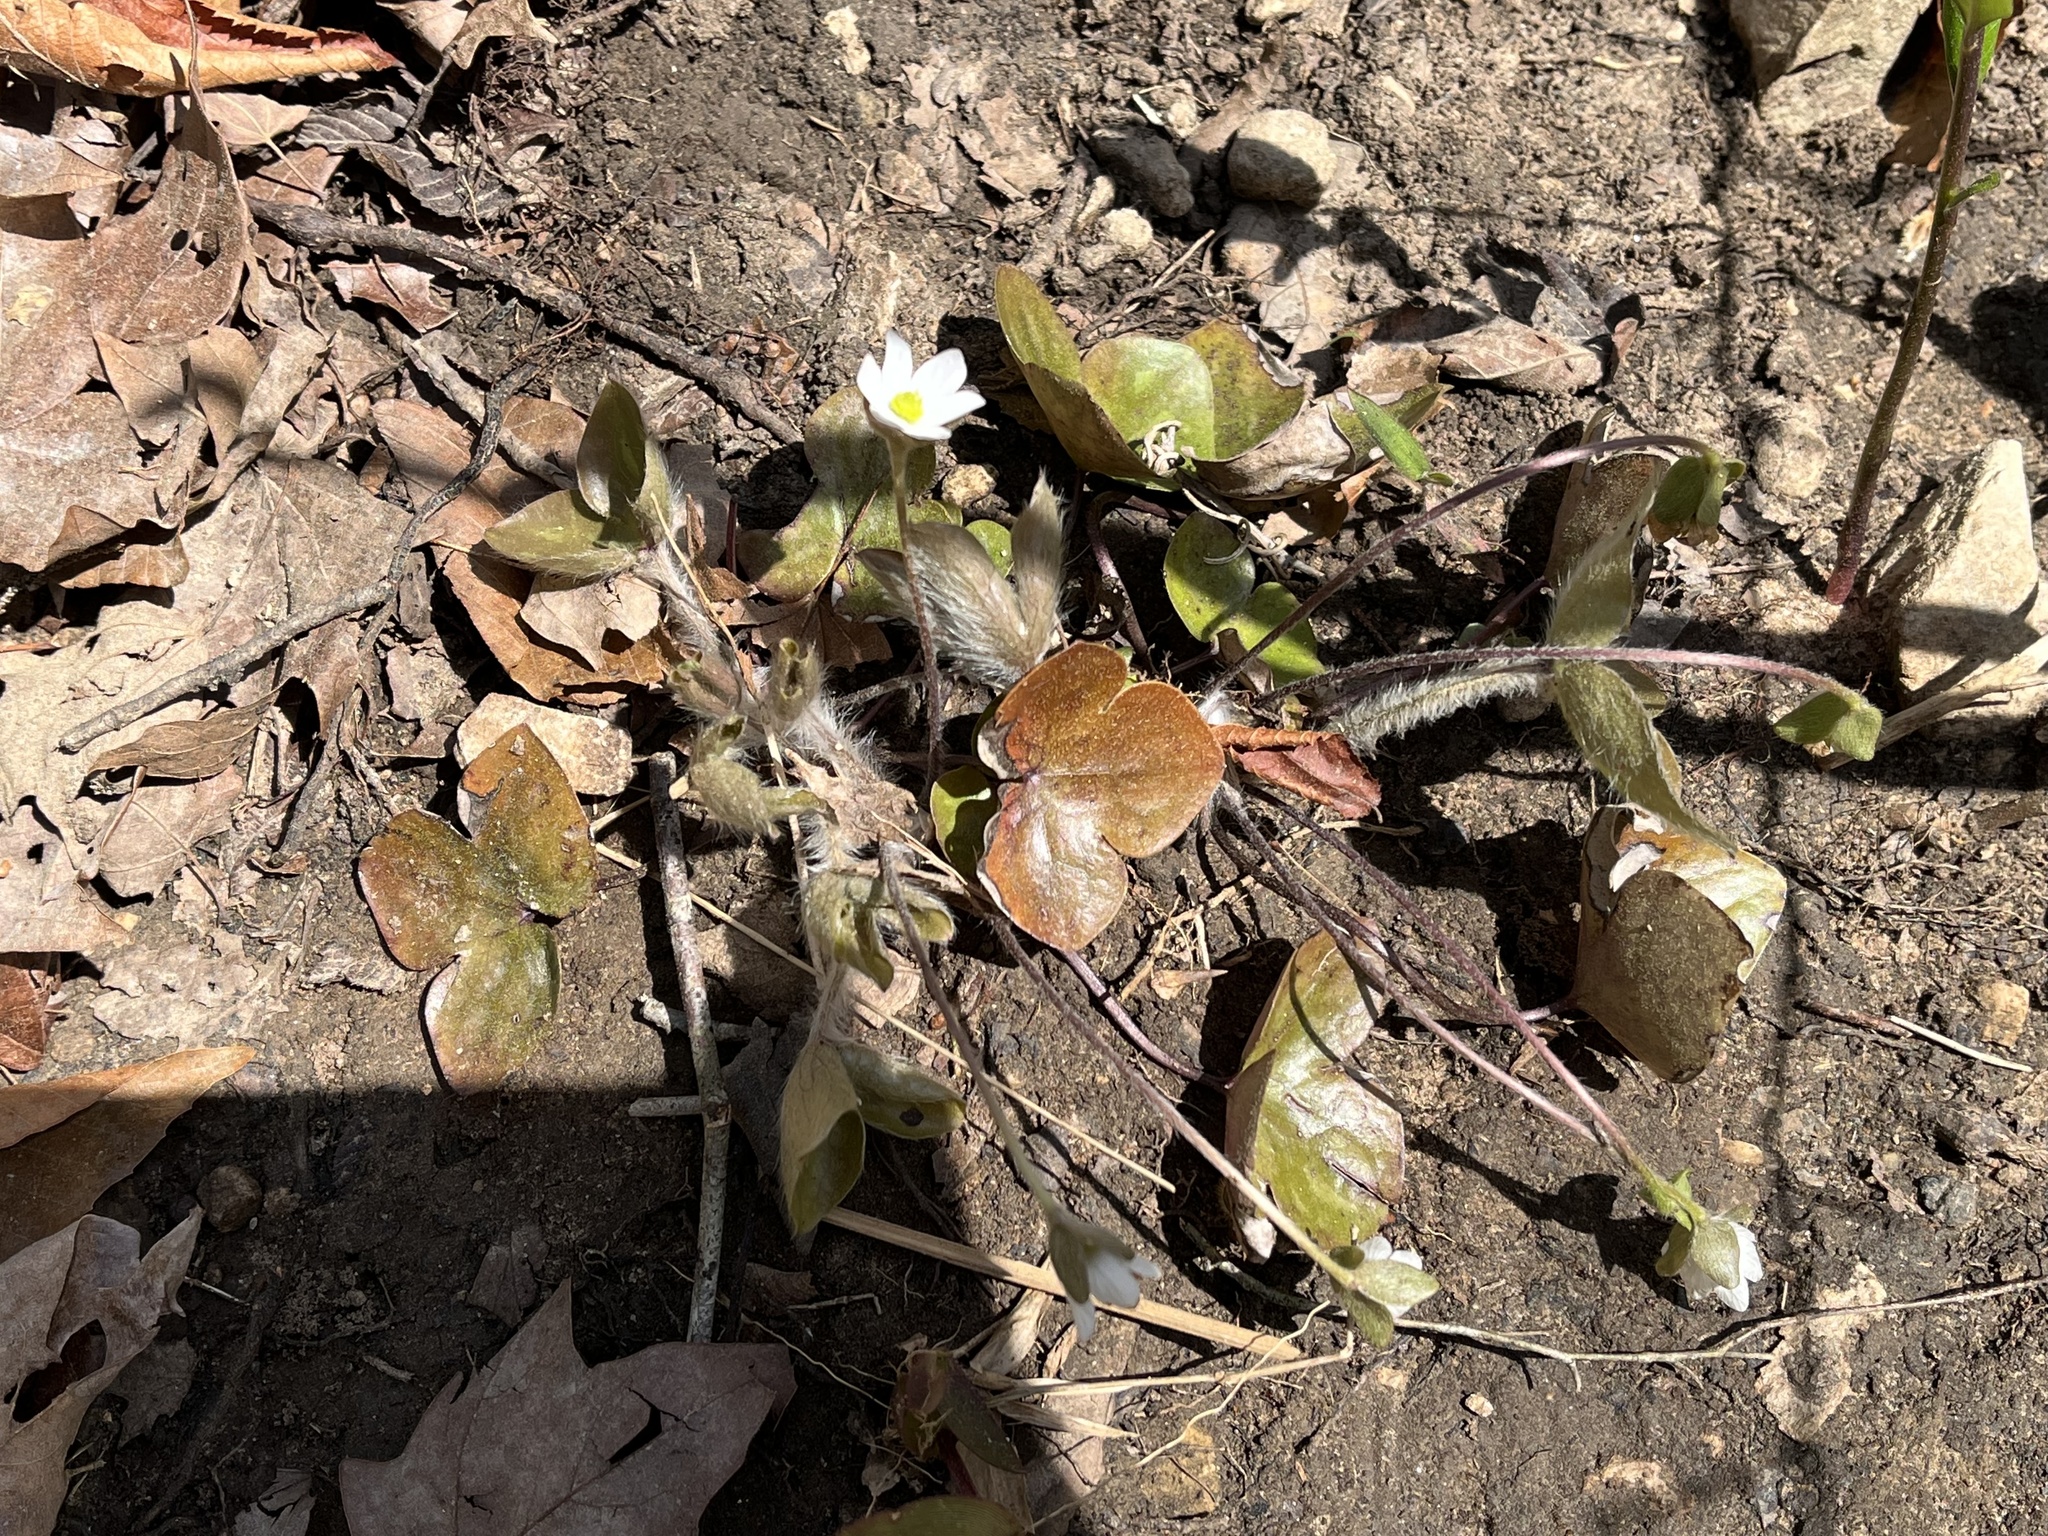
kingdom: Plantae
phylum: Tracheophyta
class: Magnoliopsida
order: Ranunculales
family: Ranunculaceae
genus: Hepatica
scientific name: Hepatica americana
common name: American hepatica
